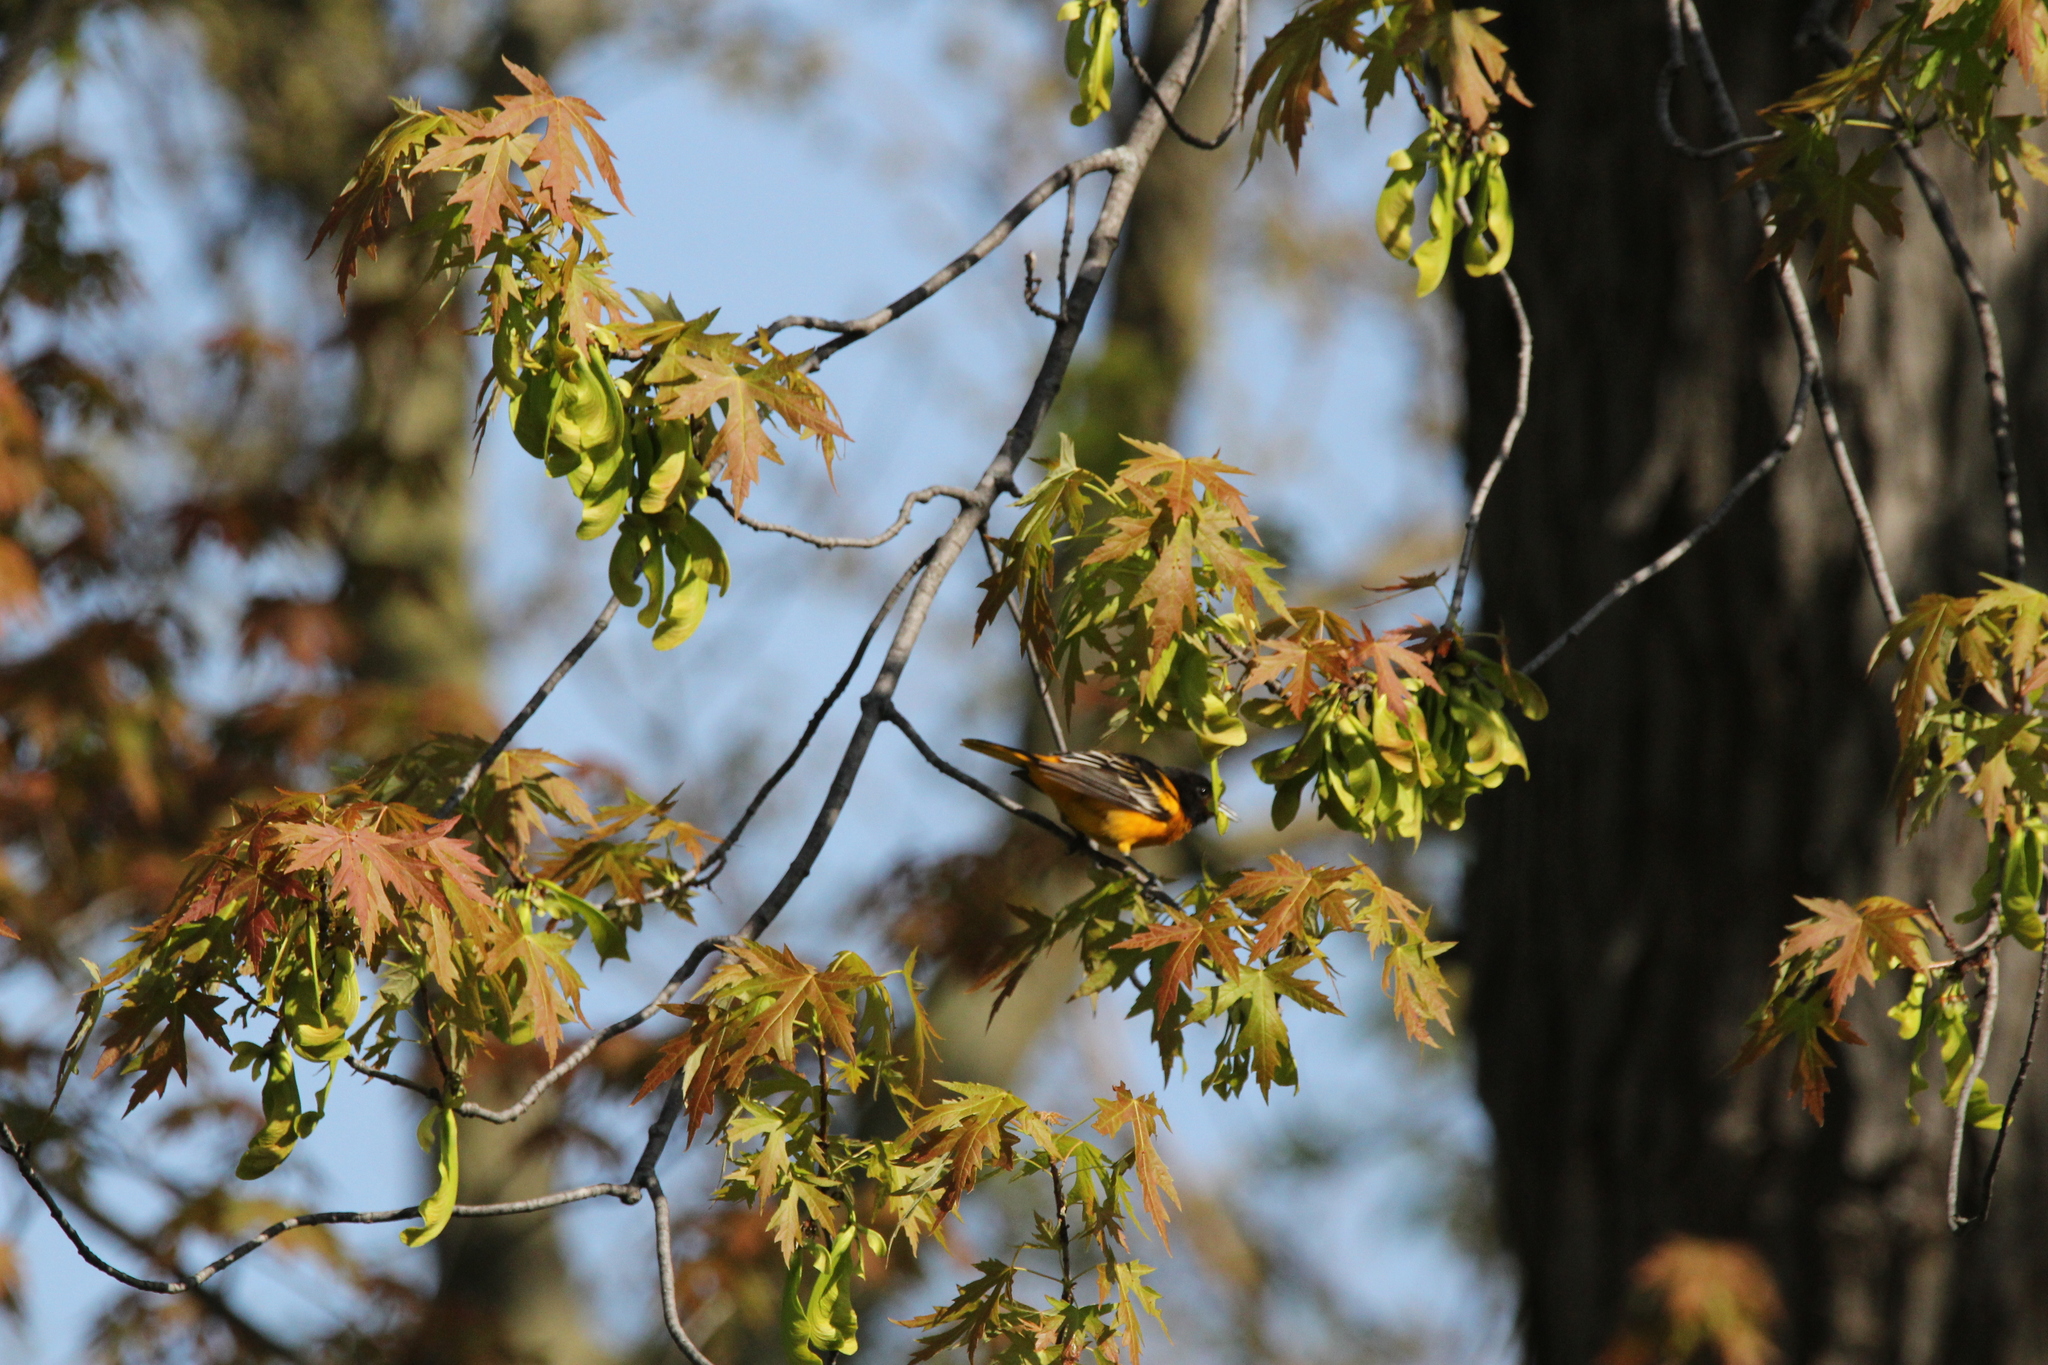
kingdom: Animalia
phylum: Chordata
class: Aves
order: Passeriformes
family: Icteridae
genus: Icterus
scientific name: Icterus galbula
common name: Baltimore oriole
